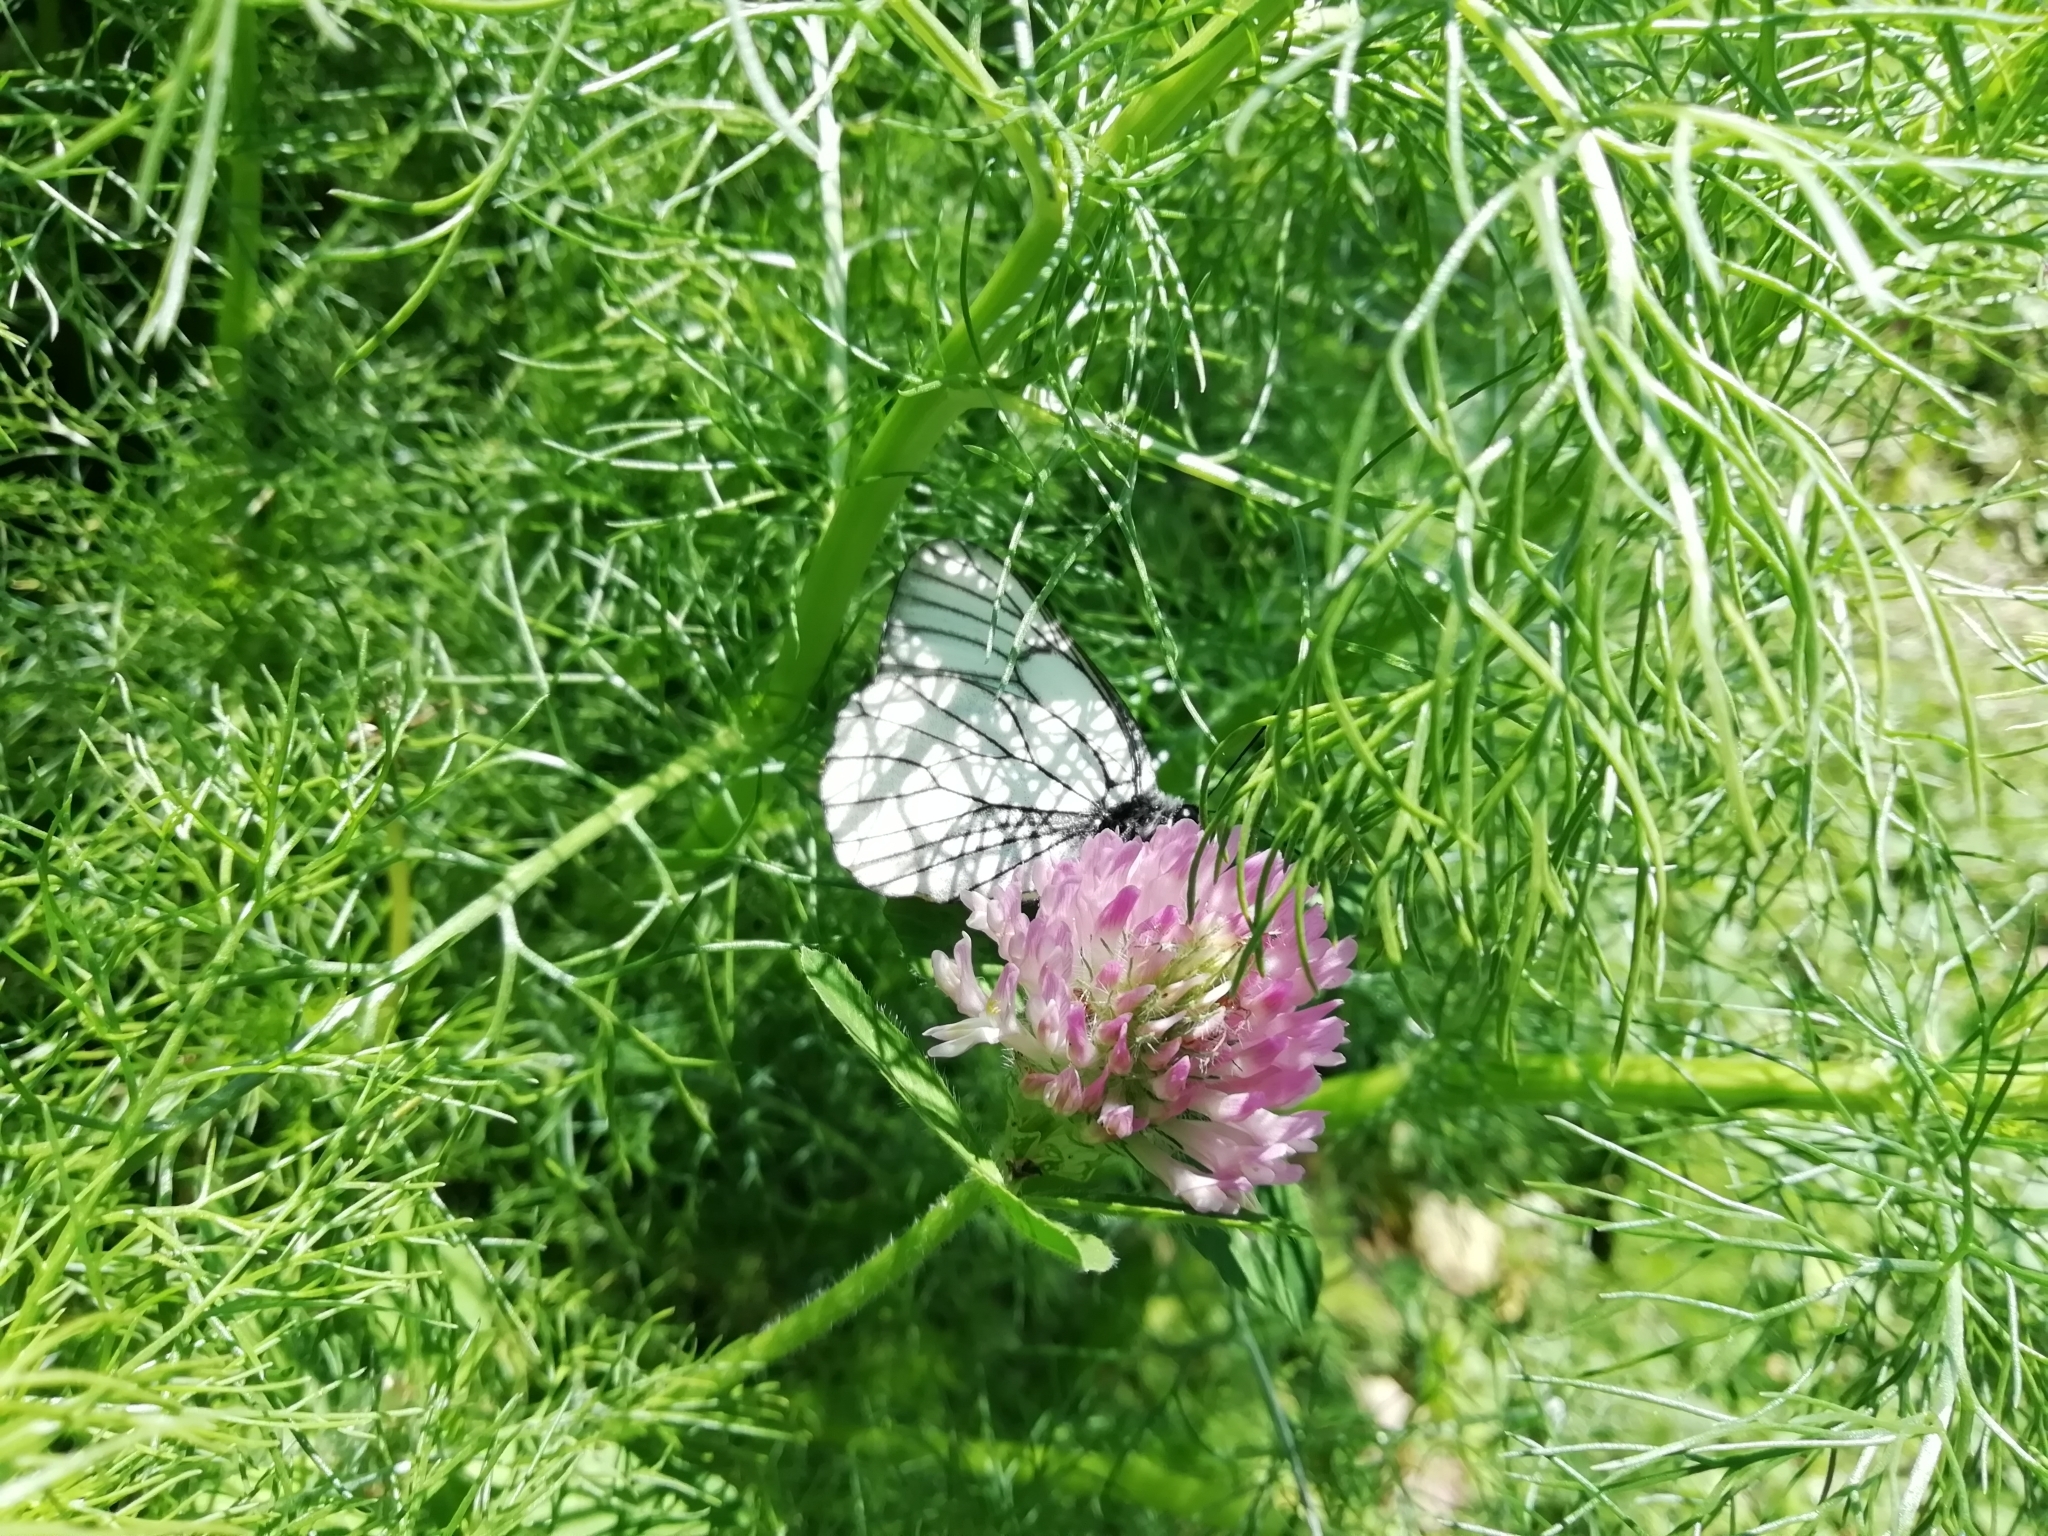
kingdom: Animalia
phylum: Arthropoda
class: Insecta
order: Lepidoptera
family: Pieridae
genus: Aporia
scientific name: Aporia crataegi
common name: Black-veined white
